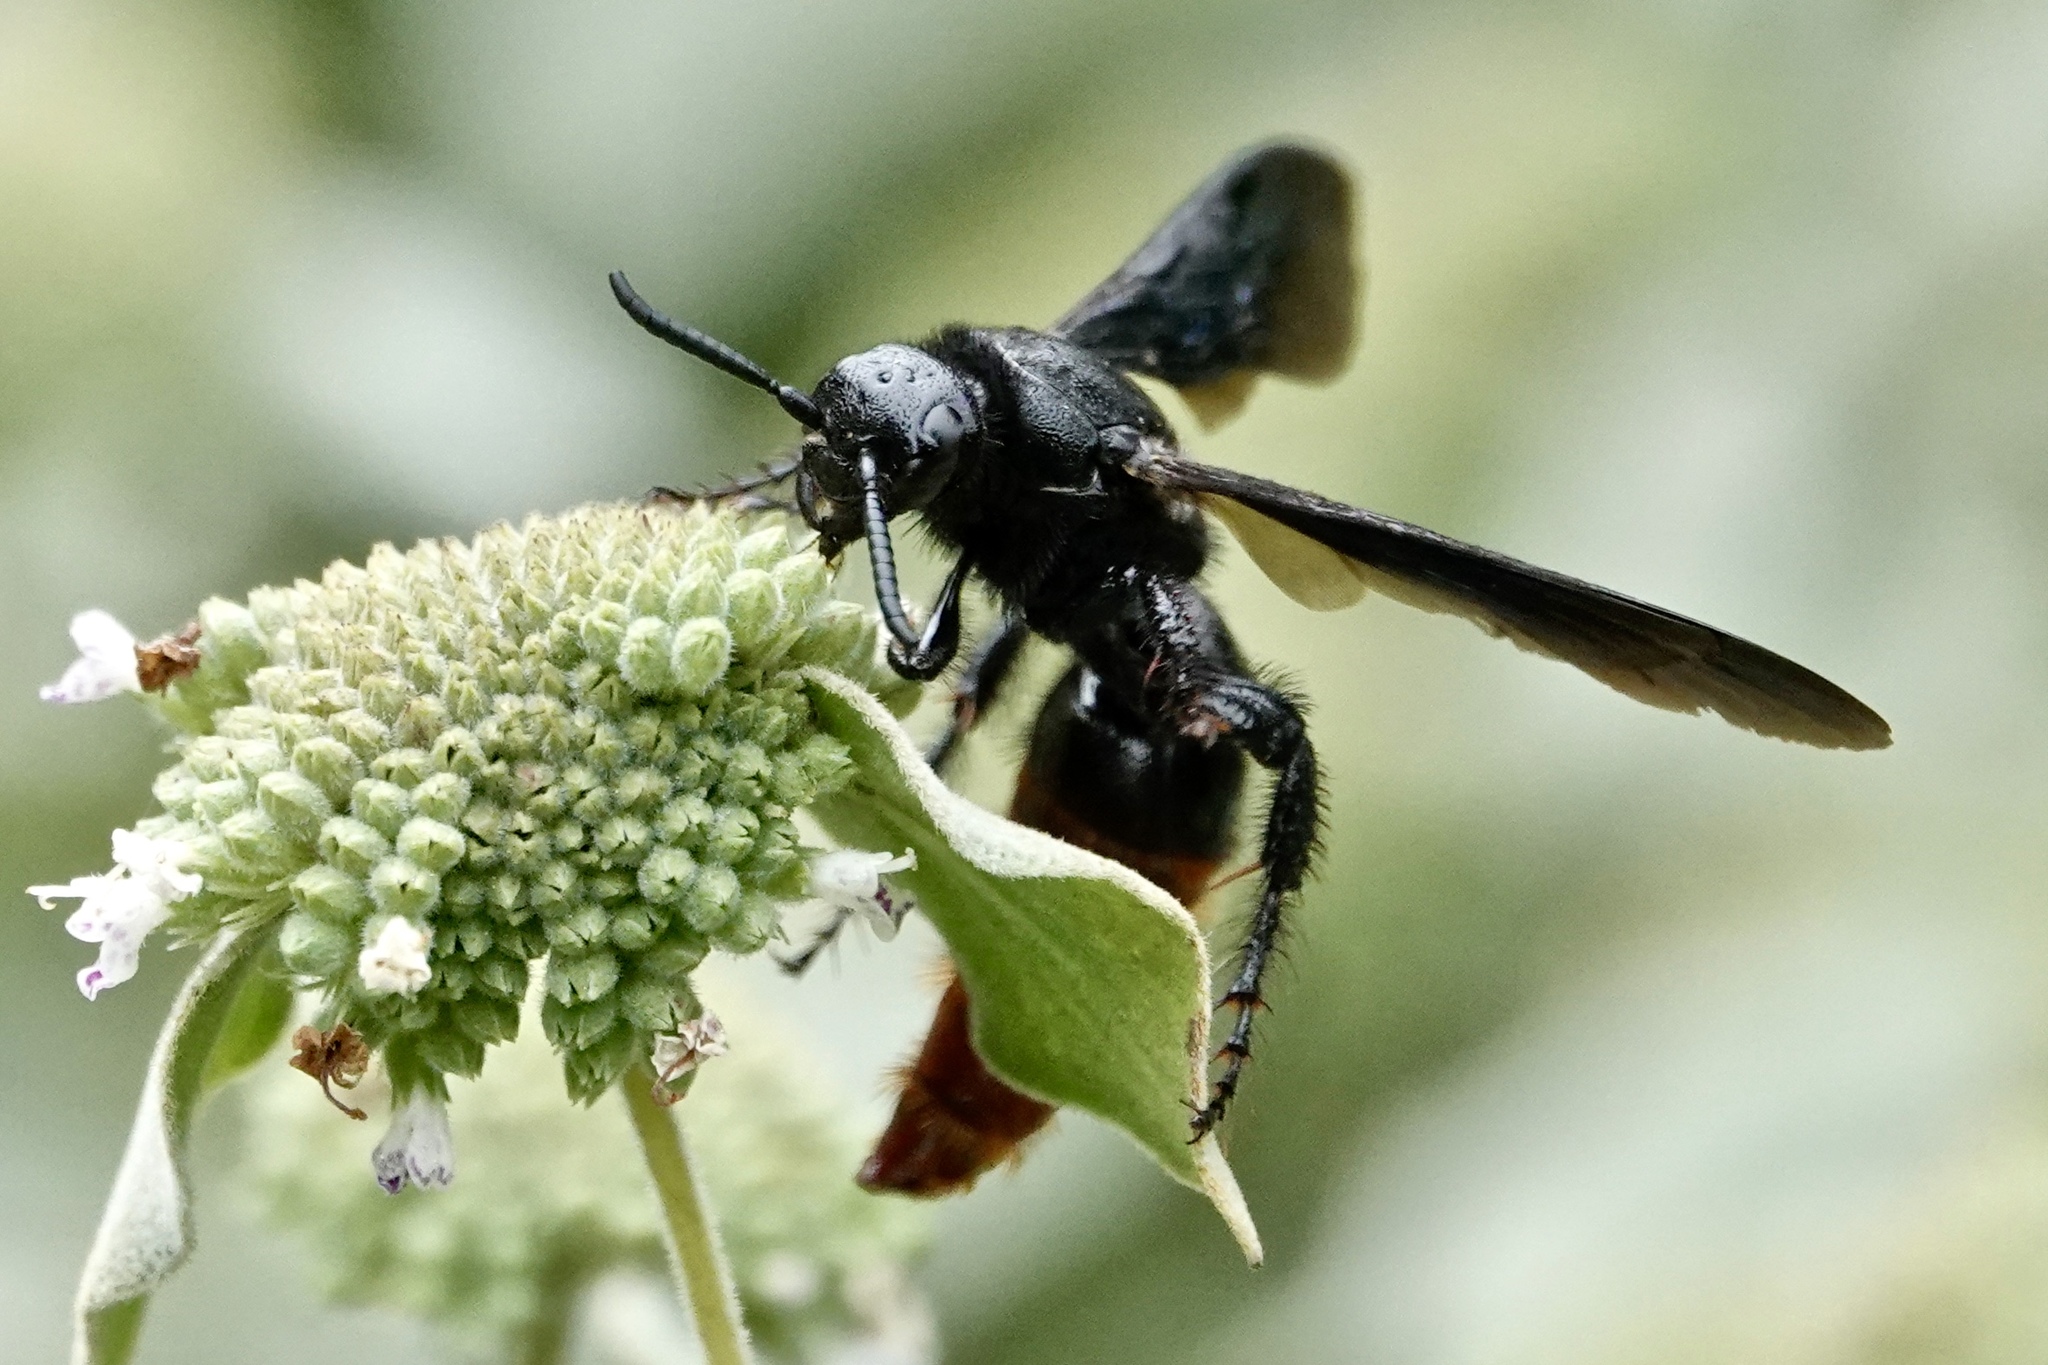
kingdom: Animalia
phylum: Arthropoda
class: Insecta
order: Hymenoptera
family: Scoliidae
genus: Scolia
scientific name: Scolia dubia
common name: Blue-winged scoliid wasp
